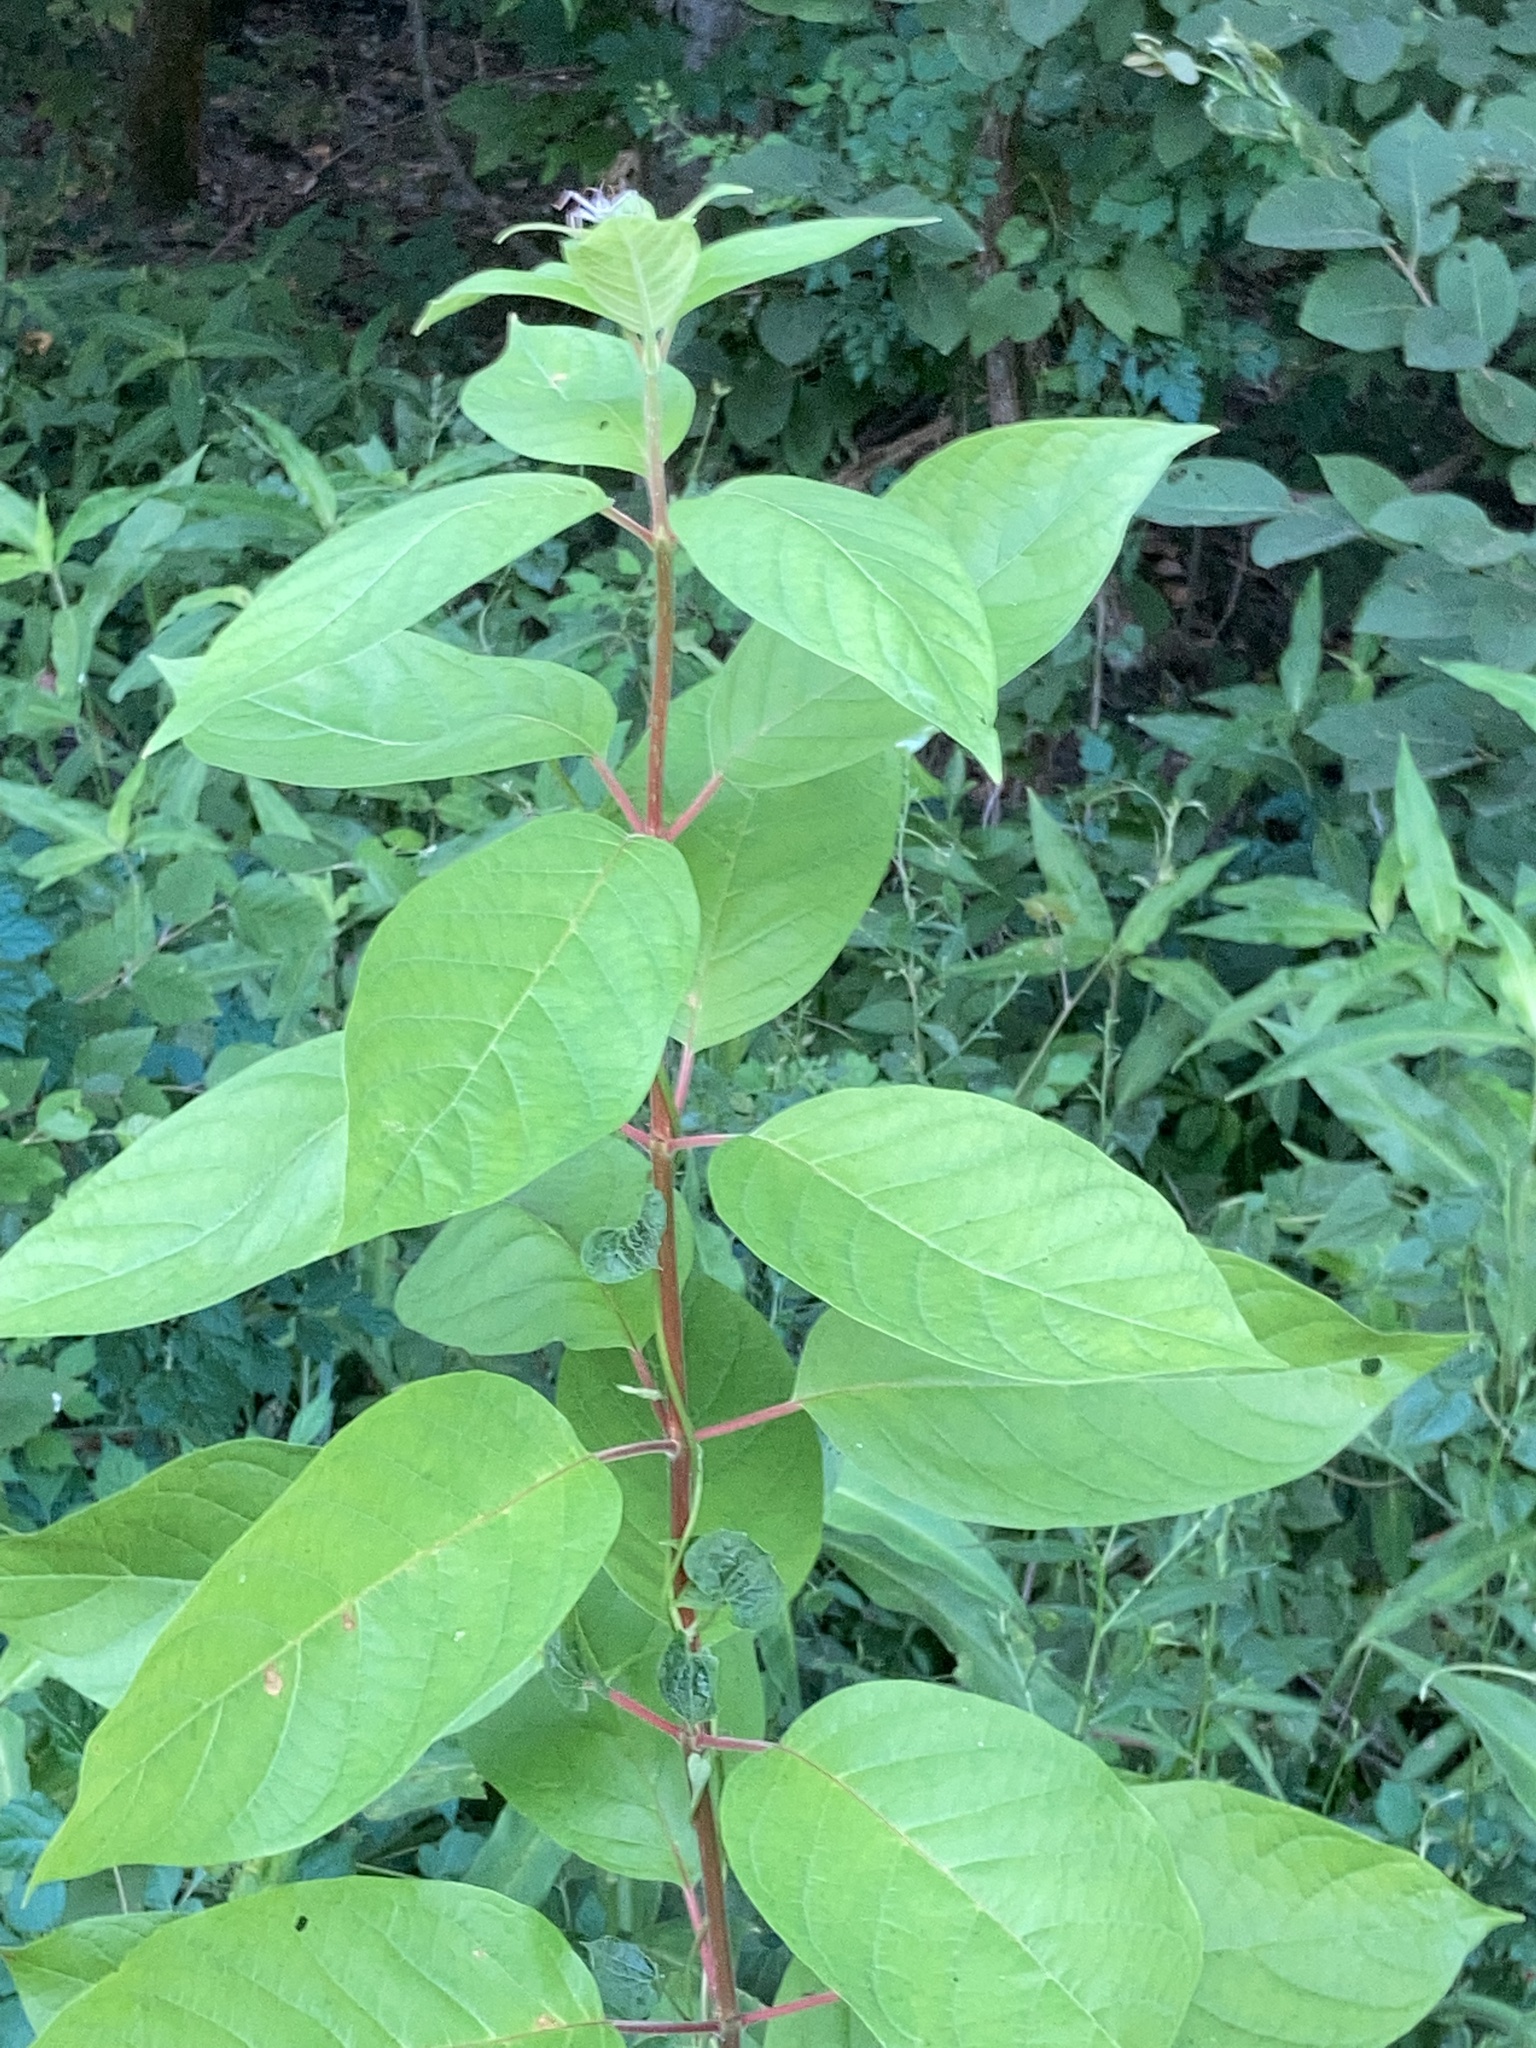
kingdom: Plantae
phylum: Tracheophyta
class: Magnoliopsida
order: Gentianales
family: Rubiaceae
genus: Cephalanthus
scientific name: Cephalanthus occidentalis
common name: Button-willow
